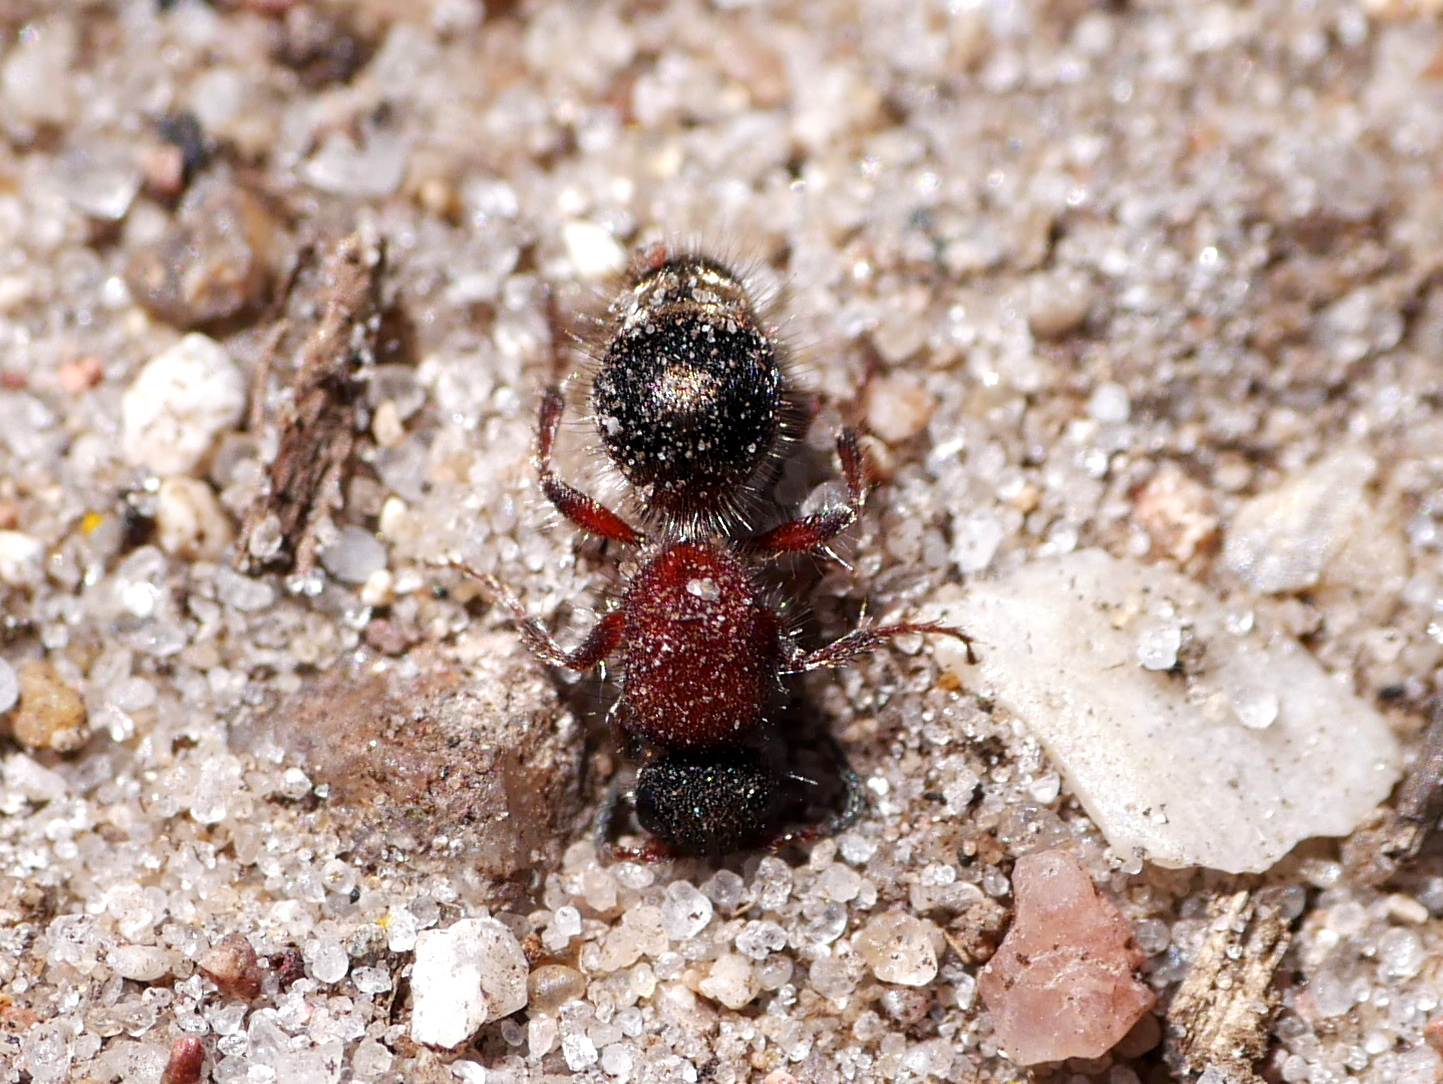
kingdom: Animalia
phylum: Arthropoda
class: Insecta
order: Hymenoptera
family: Mutillidae
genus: Smicromyrme
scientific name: Smicromyrme rufipes
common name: Small velvet ant
